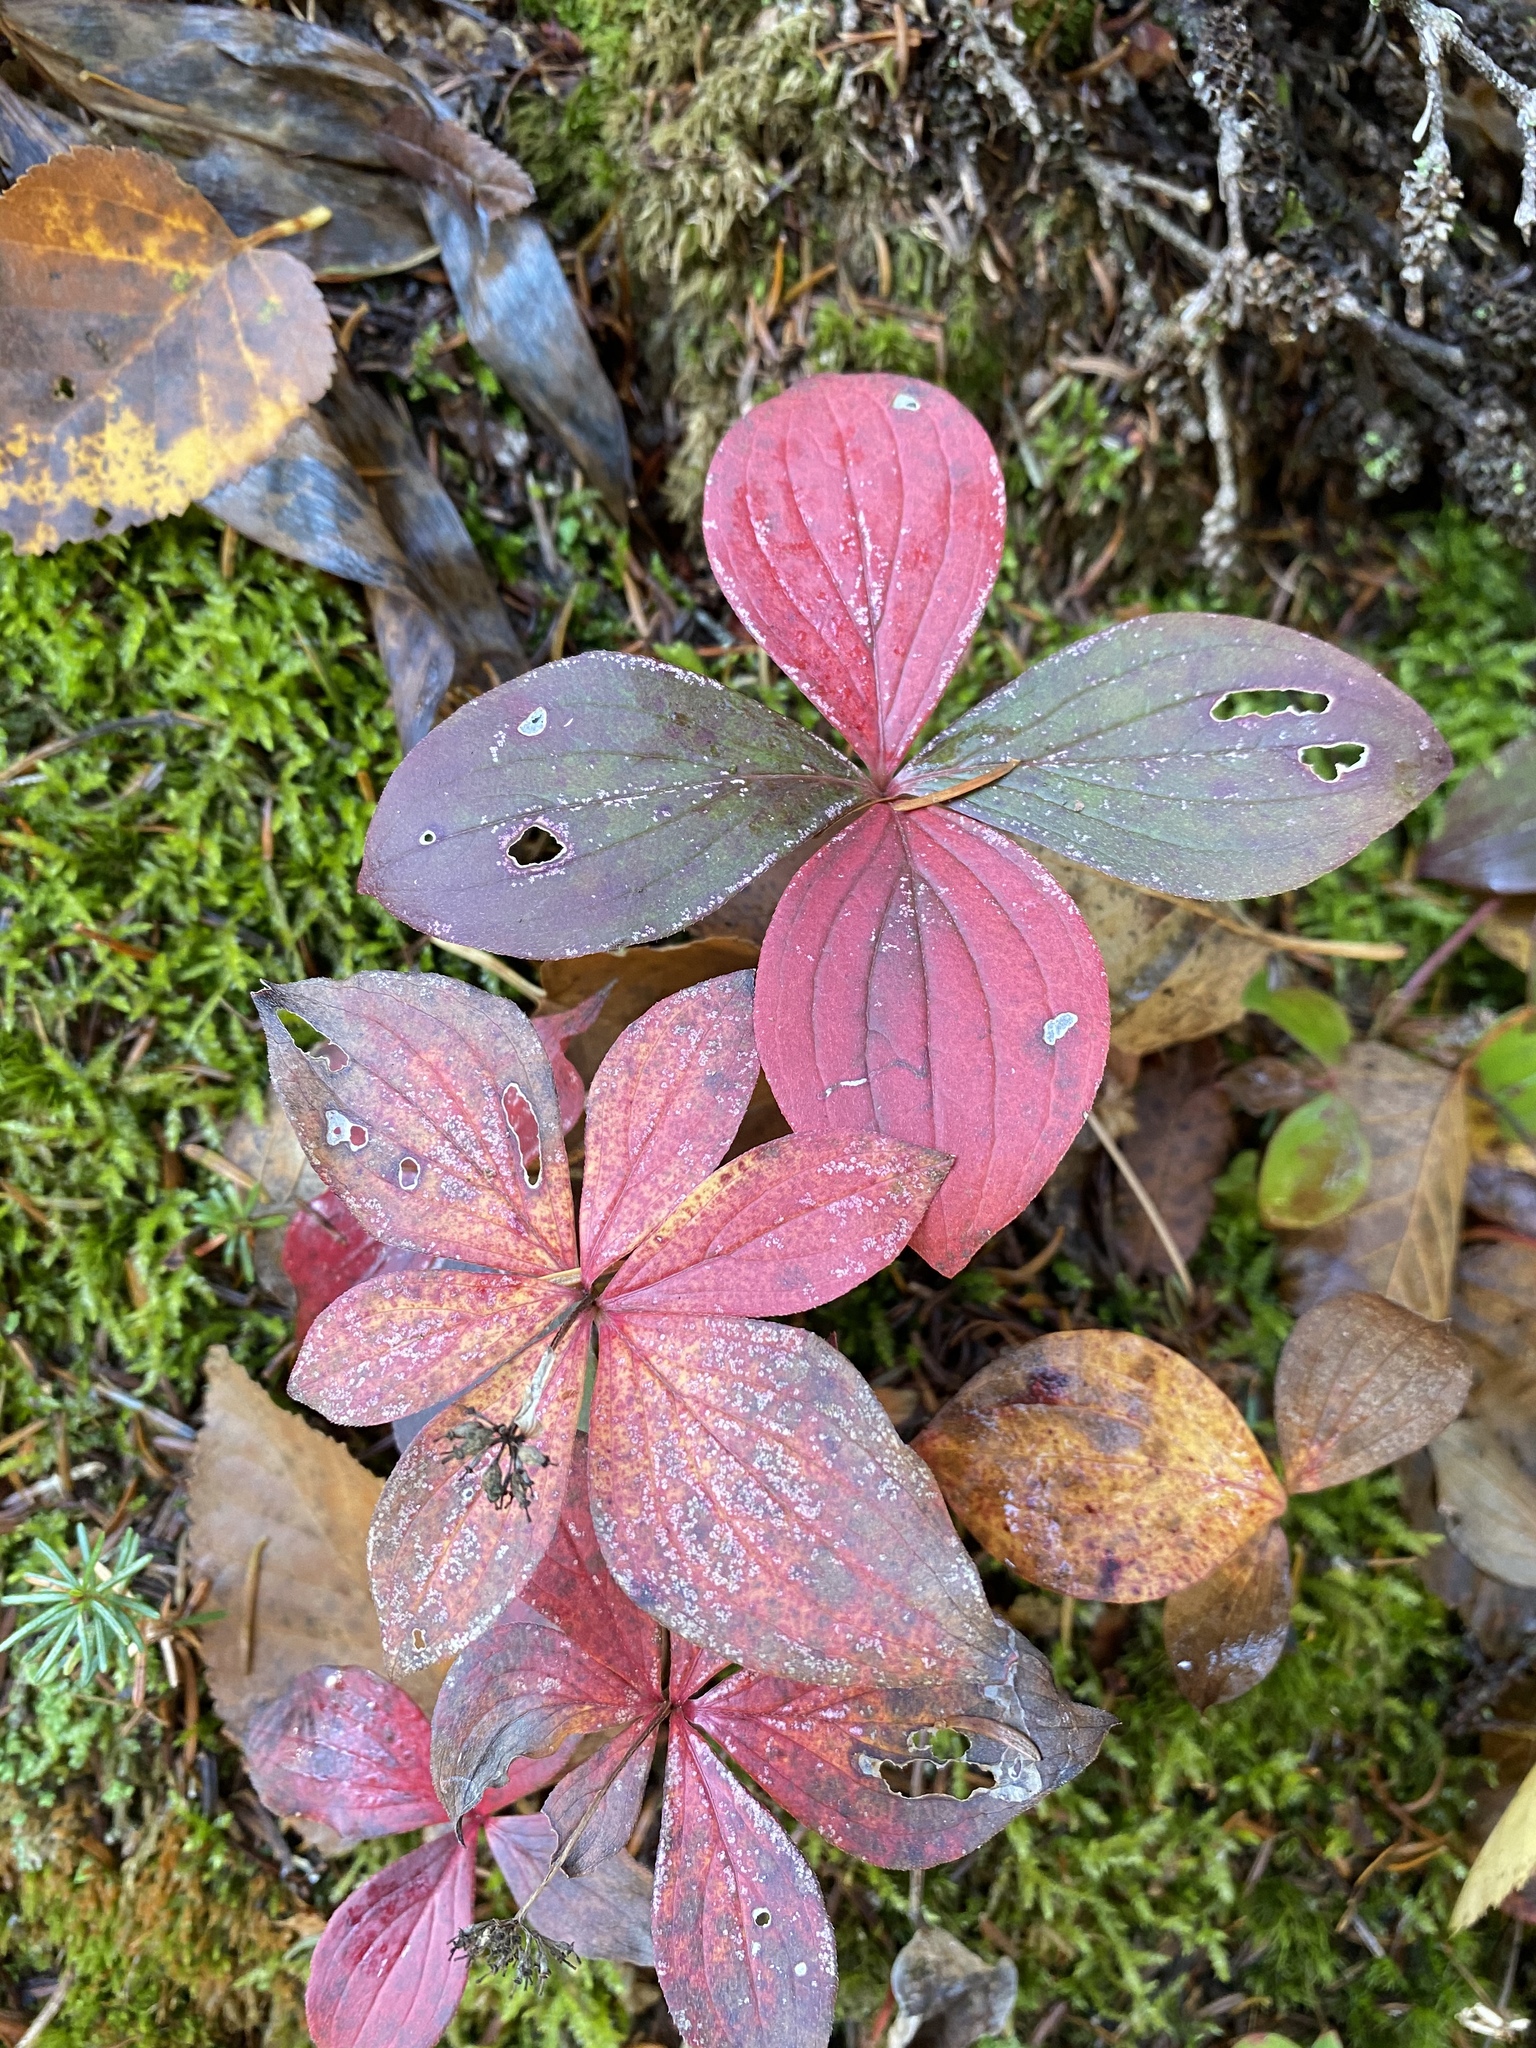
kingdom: Plantae
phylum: Tracheophyta
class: Magnoliopsida
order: Cornales
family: Cornaceae
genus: Cornus
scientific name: Cornus canadensis
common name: Creeping dogwood
